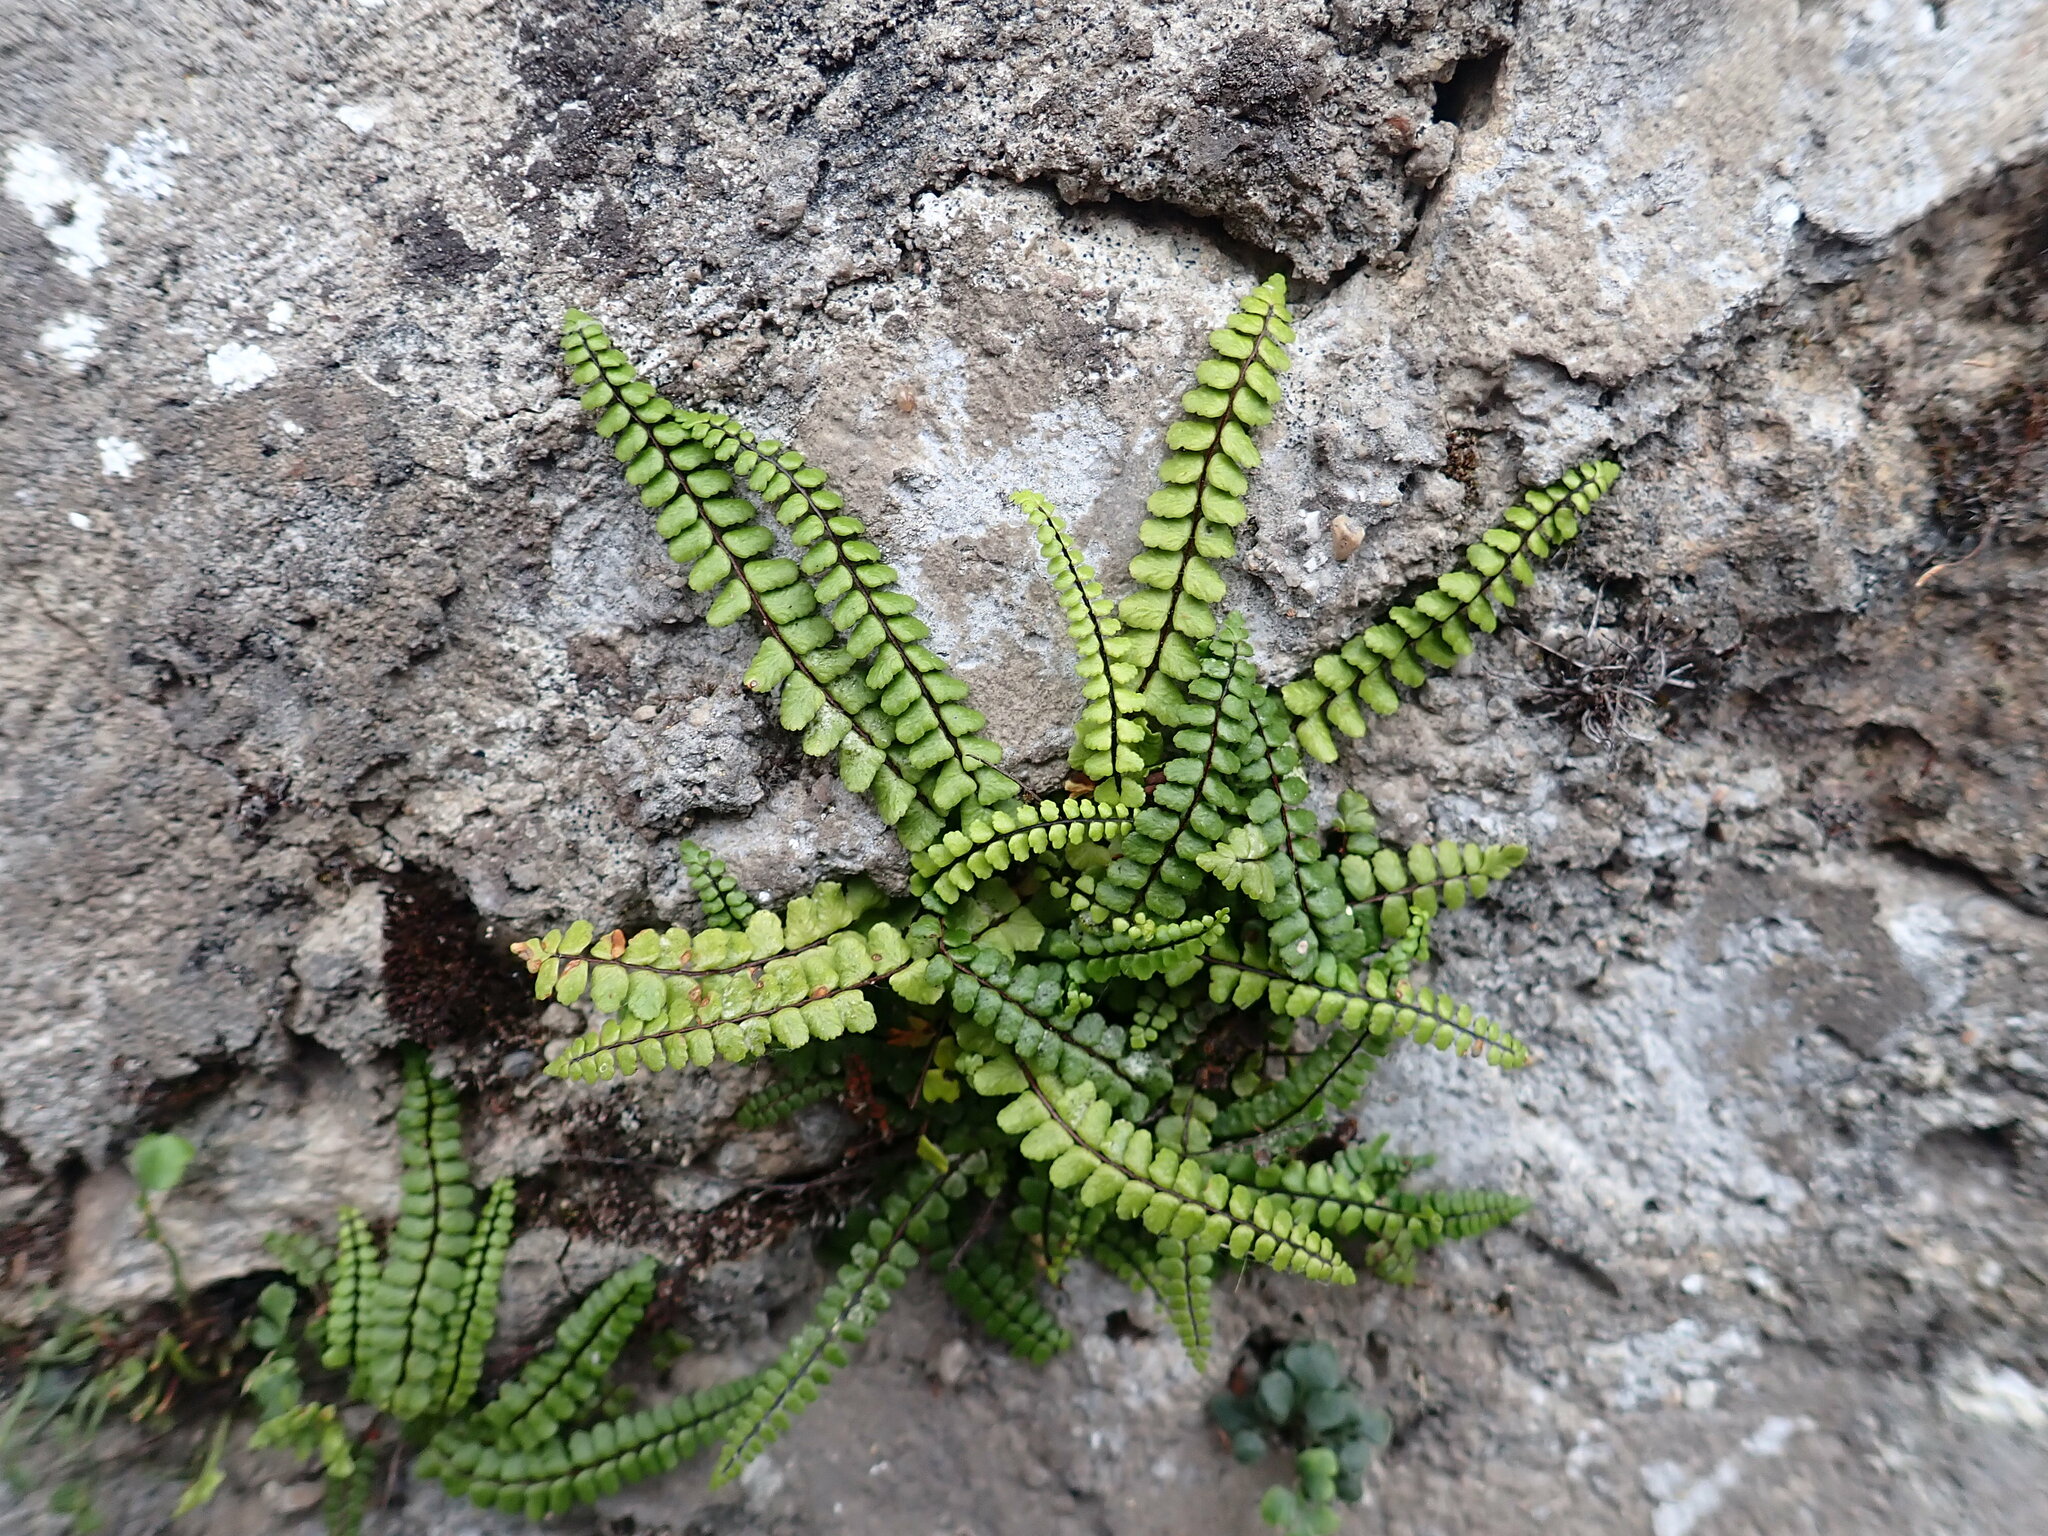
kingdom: Plantae
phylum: Tracheophyta
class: Polypodiopsida
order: Polypodiales
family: Aspleniaceae
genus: Asplenium
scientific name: Asplenium csikii
